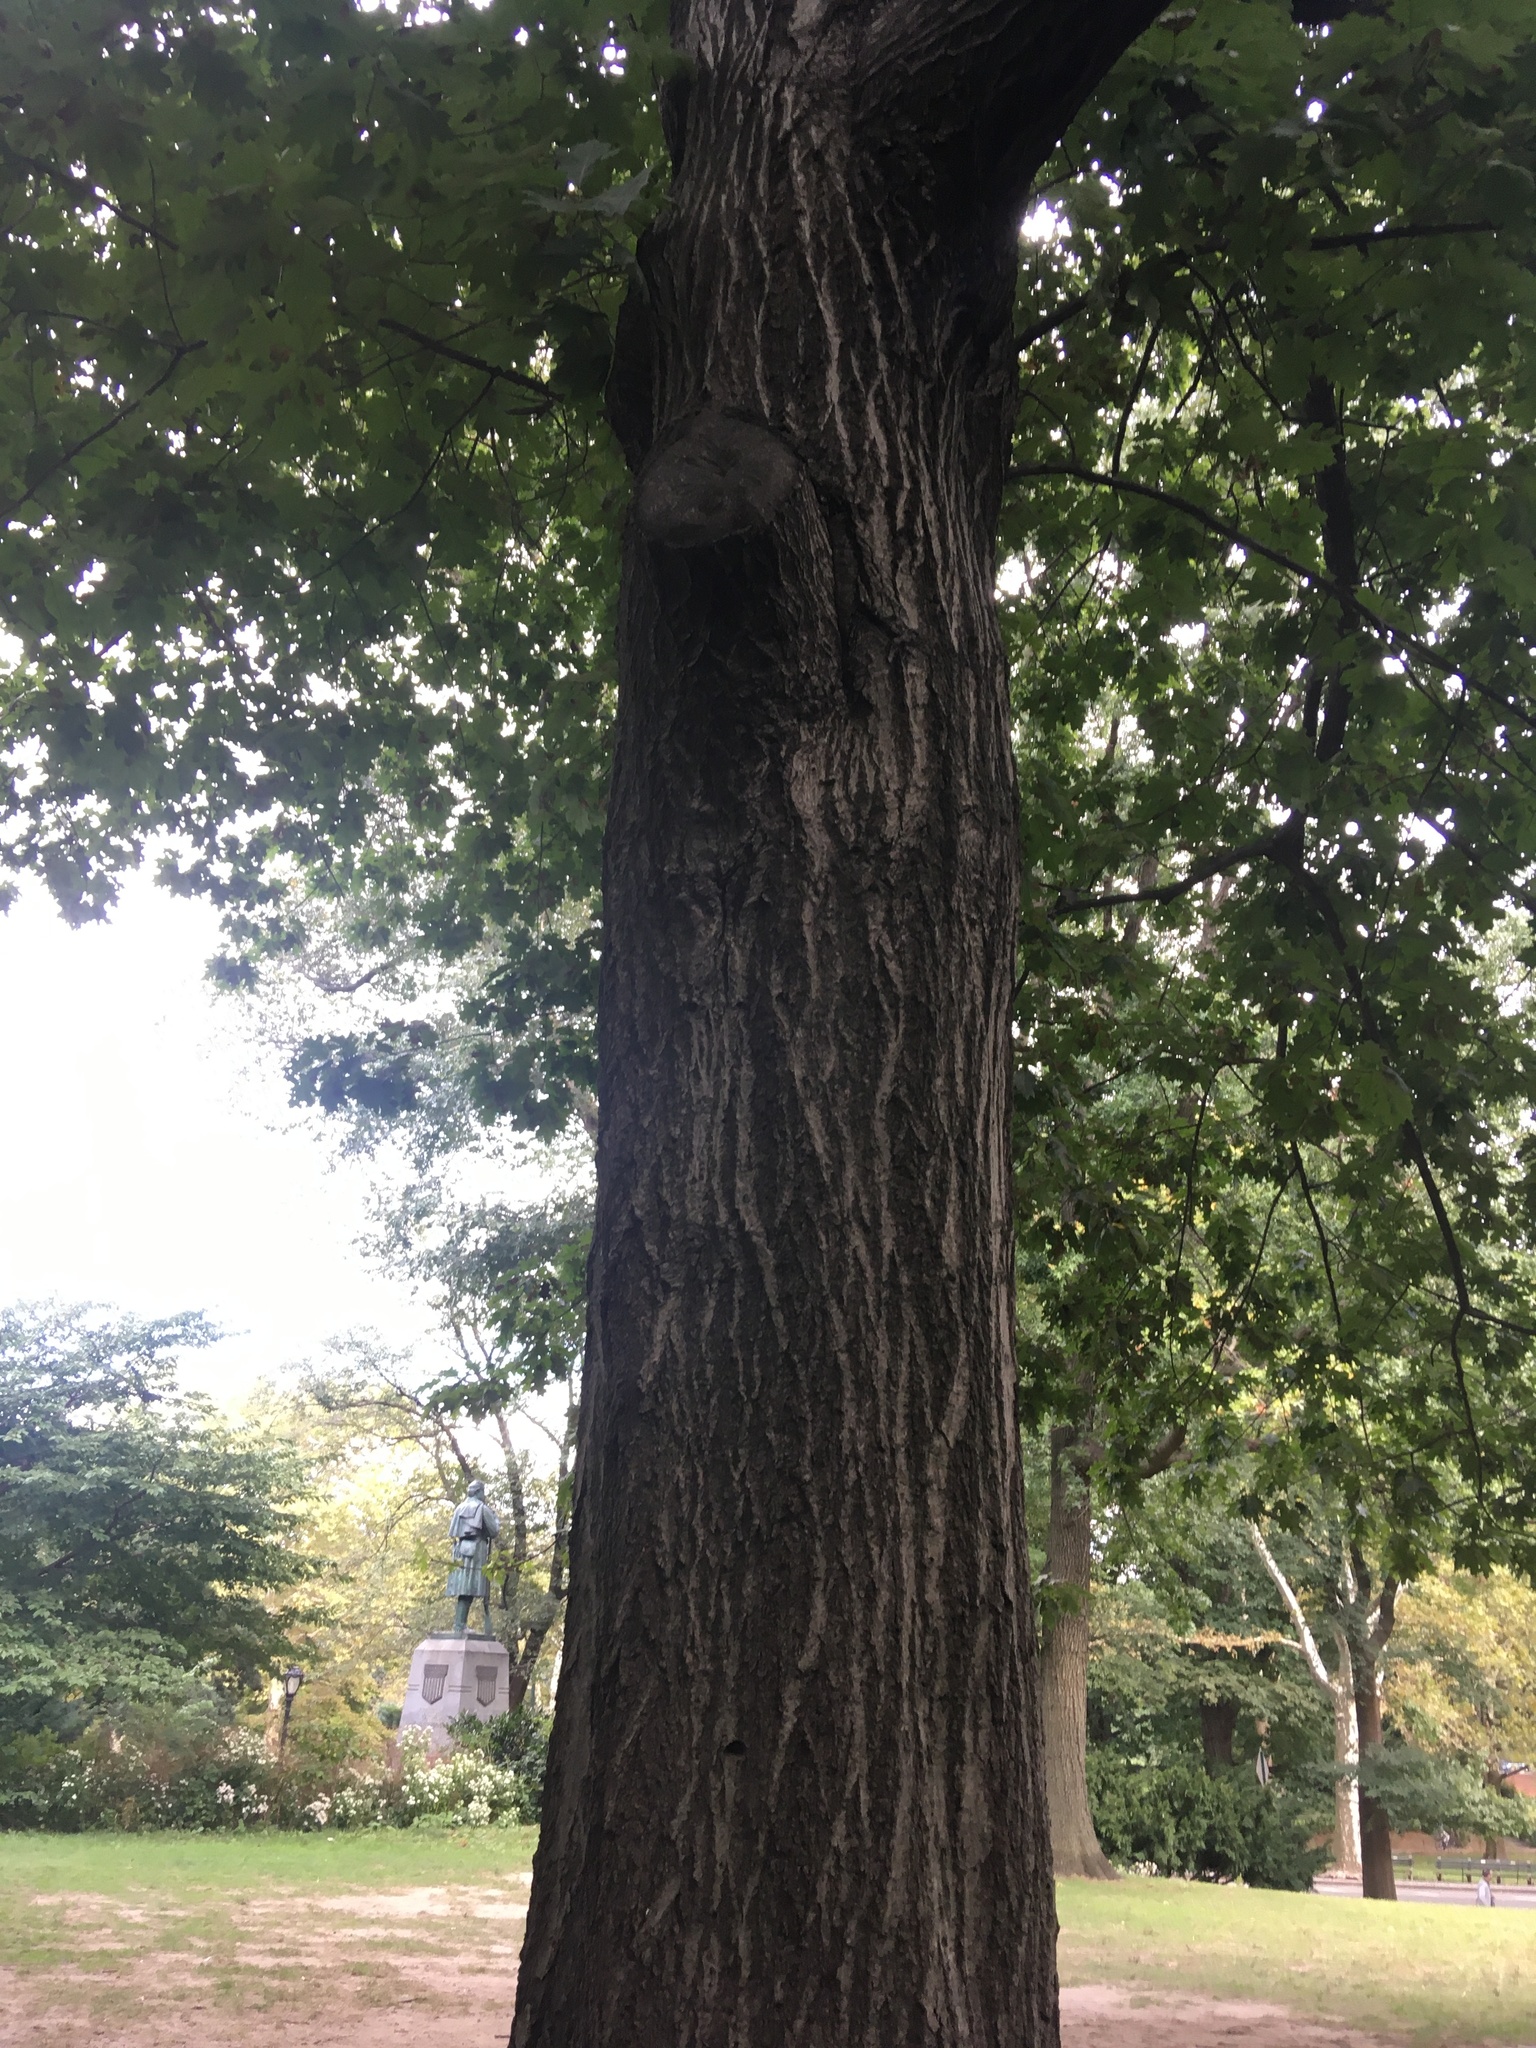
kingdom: Plantae
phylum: Tracheophyta
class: Magnoliopsida
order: Fagales
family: Fagaceae
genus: Quercus
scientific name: Quercus rubra
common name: Red oak
